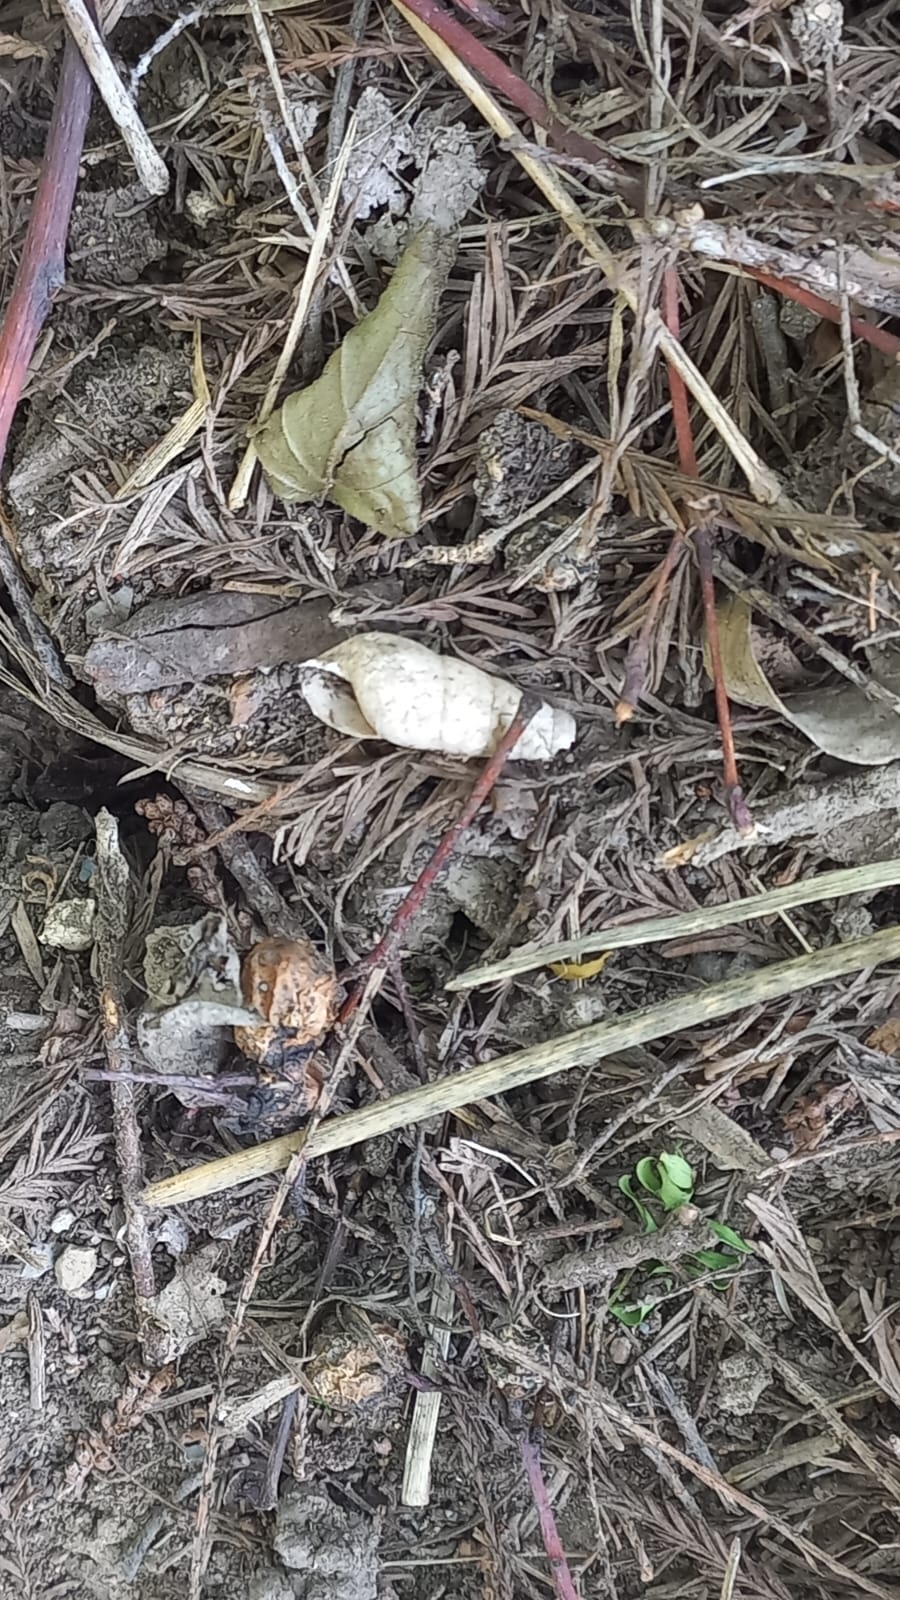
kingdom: Animalia
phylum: Mollusca
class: Gastropoda
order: Stylommatophora
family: Achatinidae
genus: Rumina
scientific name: Rumina decollata
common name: Decollate snail
